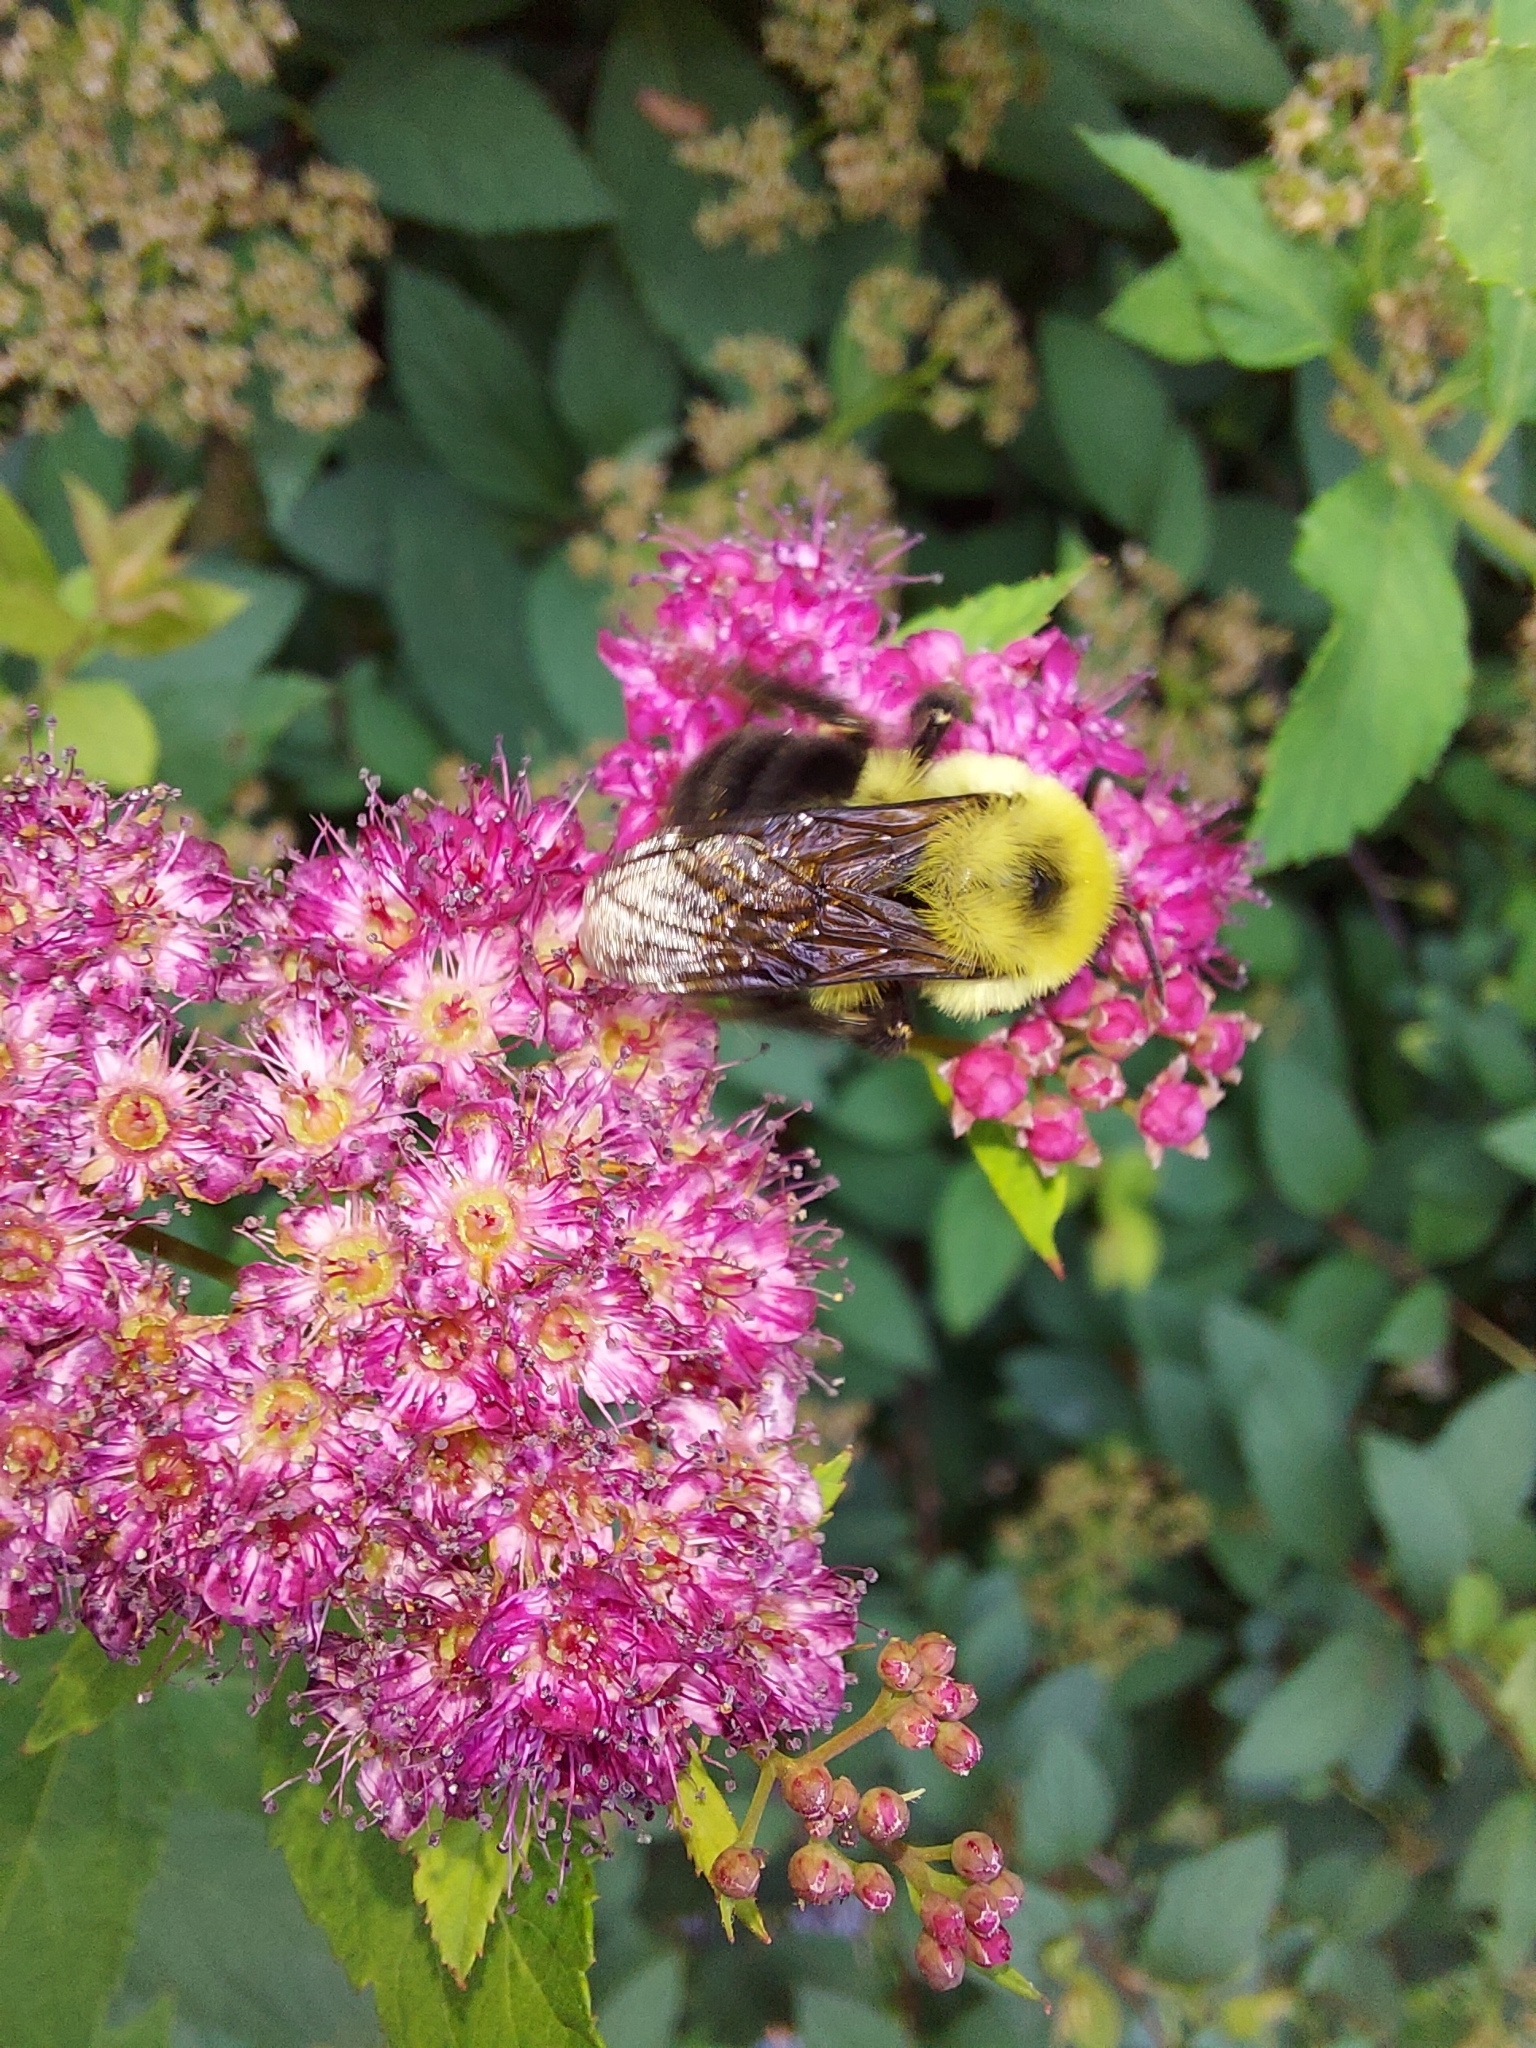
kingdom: Animalia
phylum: Arthropoda
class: Insecta
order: Hymenoptera
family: Apidae
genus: Bombus
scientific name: Bombus bimaculatus
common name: Two-spotted bumble bee
